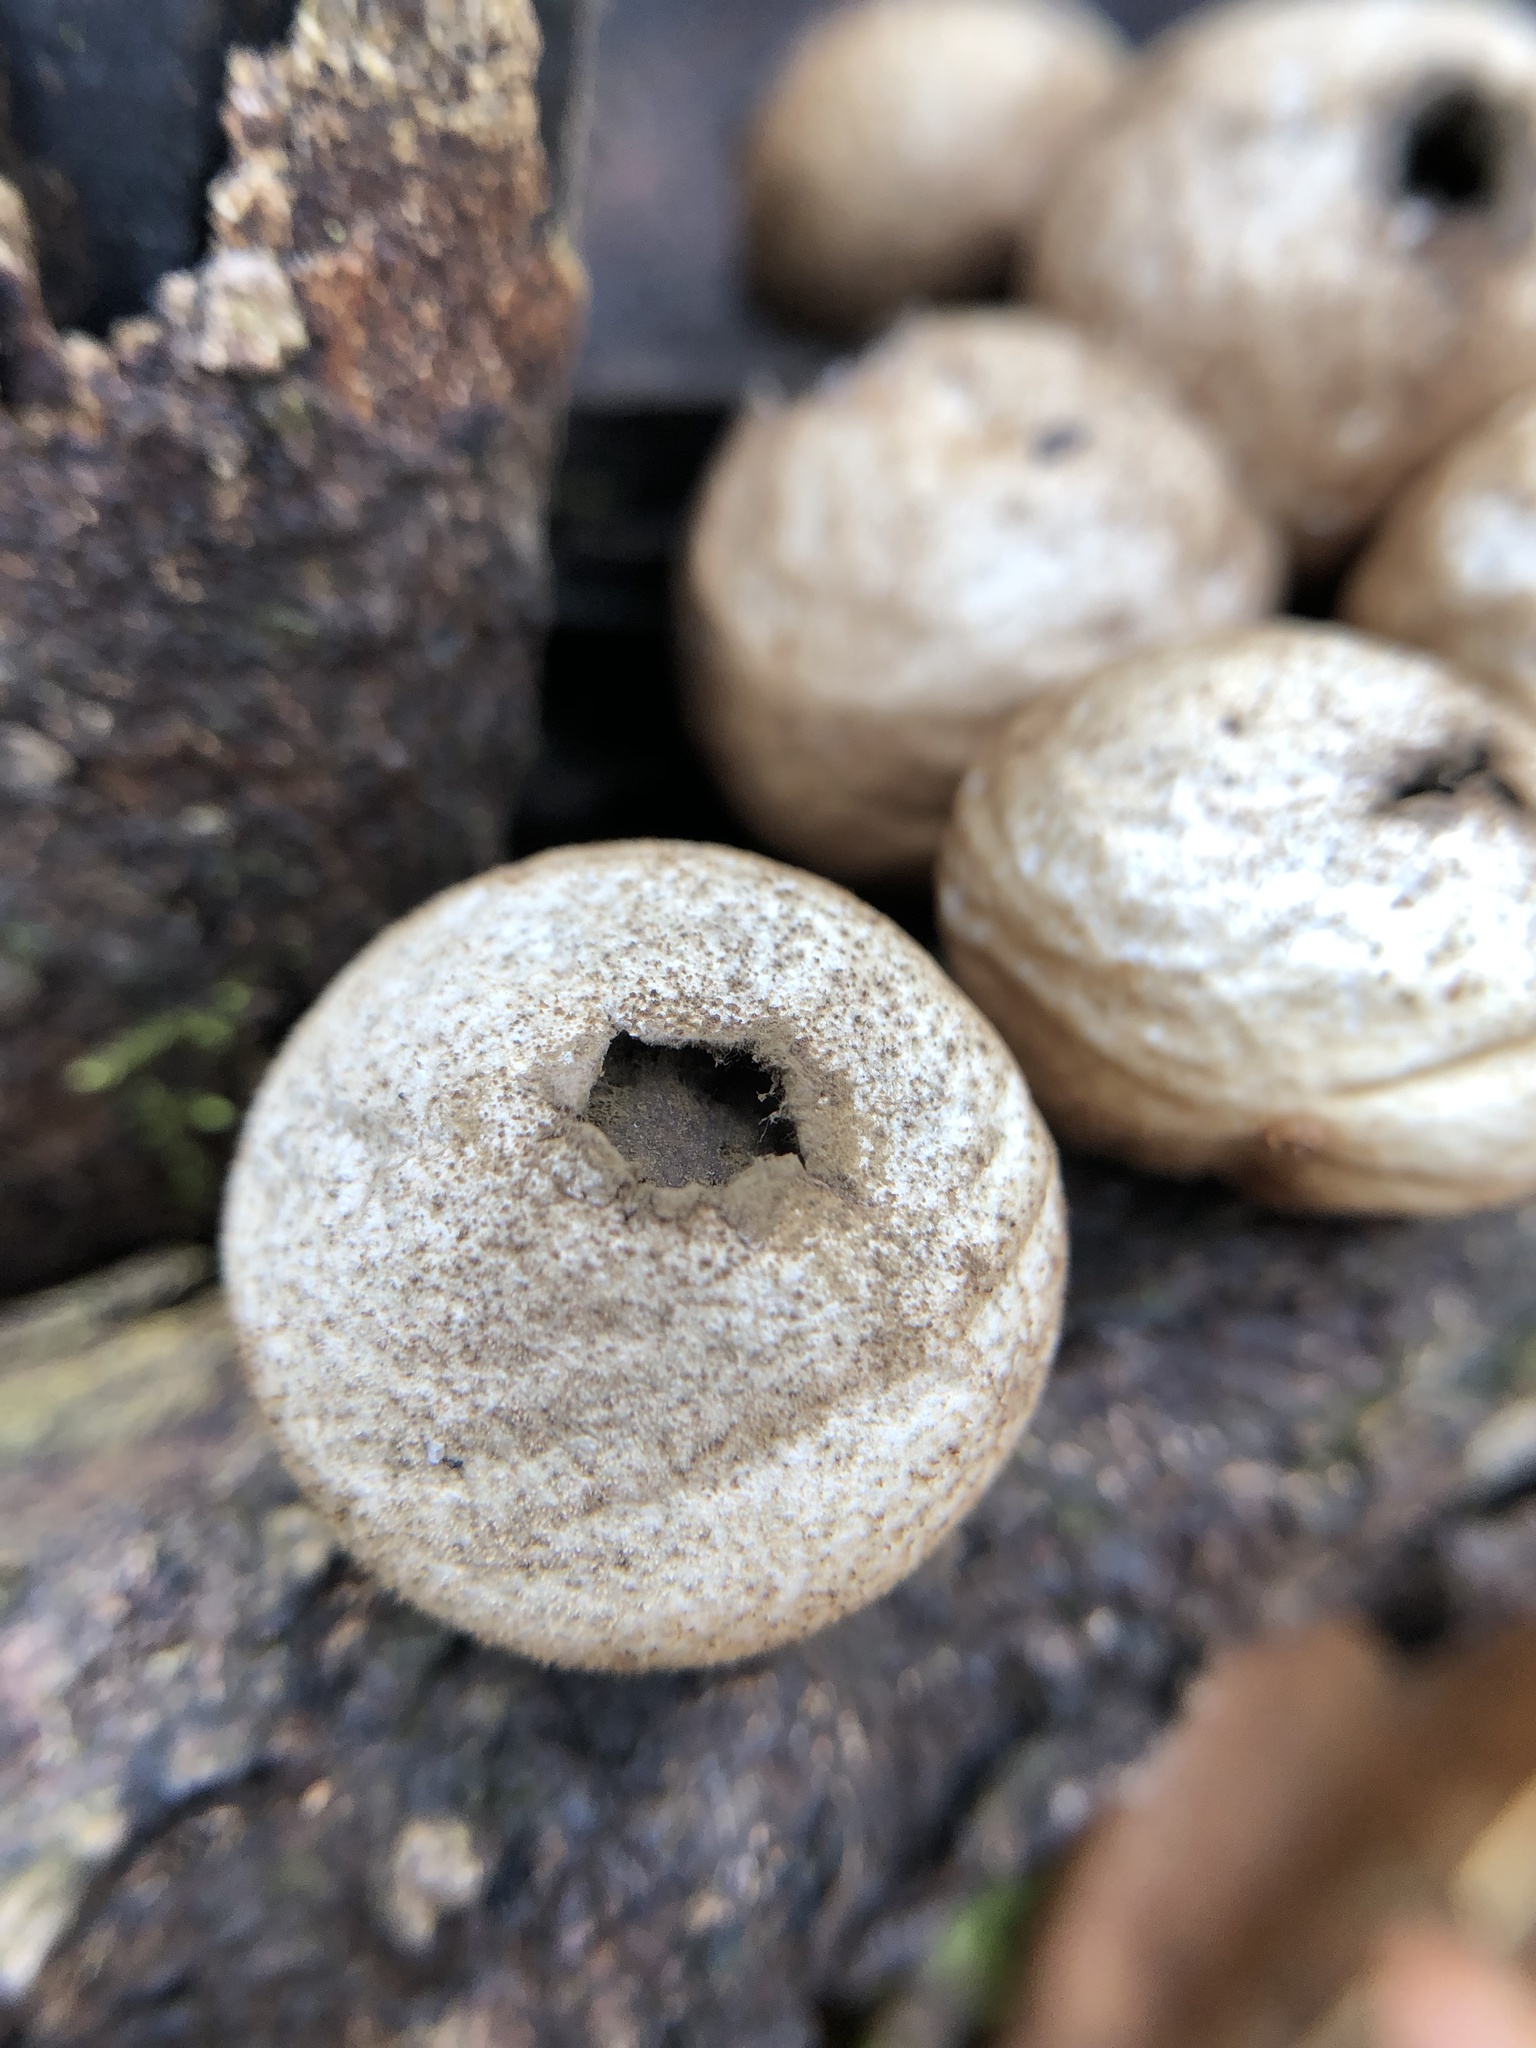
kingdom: Fungi
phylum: Basidiomycota
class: Agaricomycetes
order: Agaricales
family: Lycoperdaceae
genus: Apioperdon
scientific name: Apioperdon pyriforme
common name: Pear-shaped puffball
